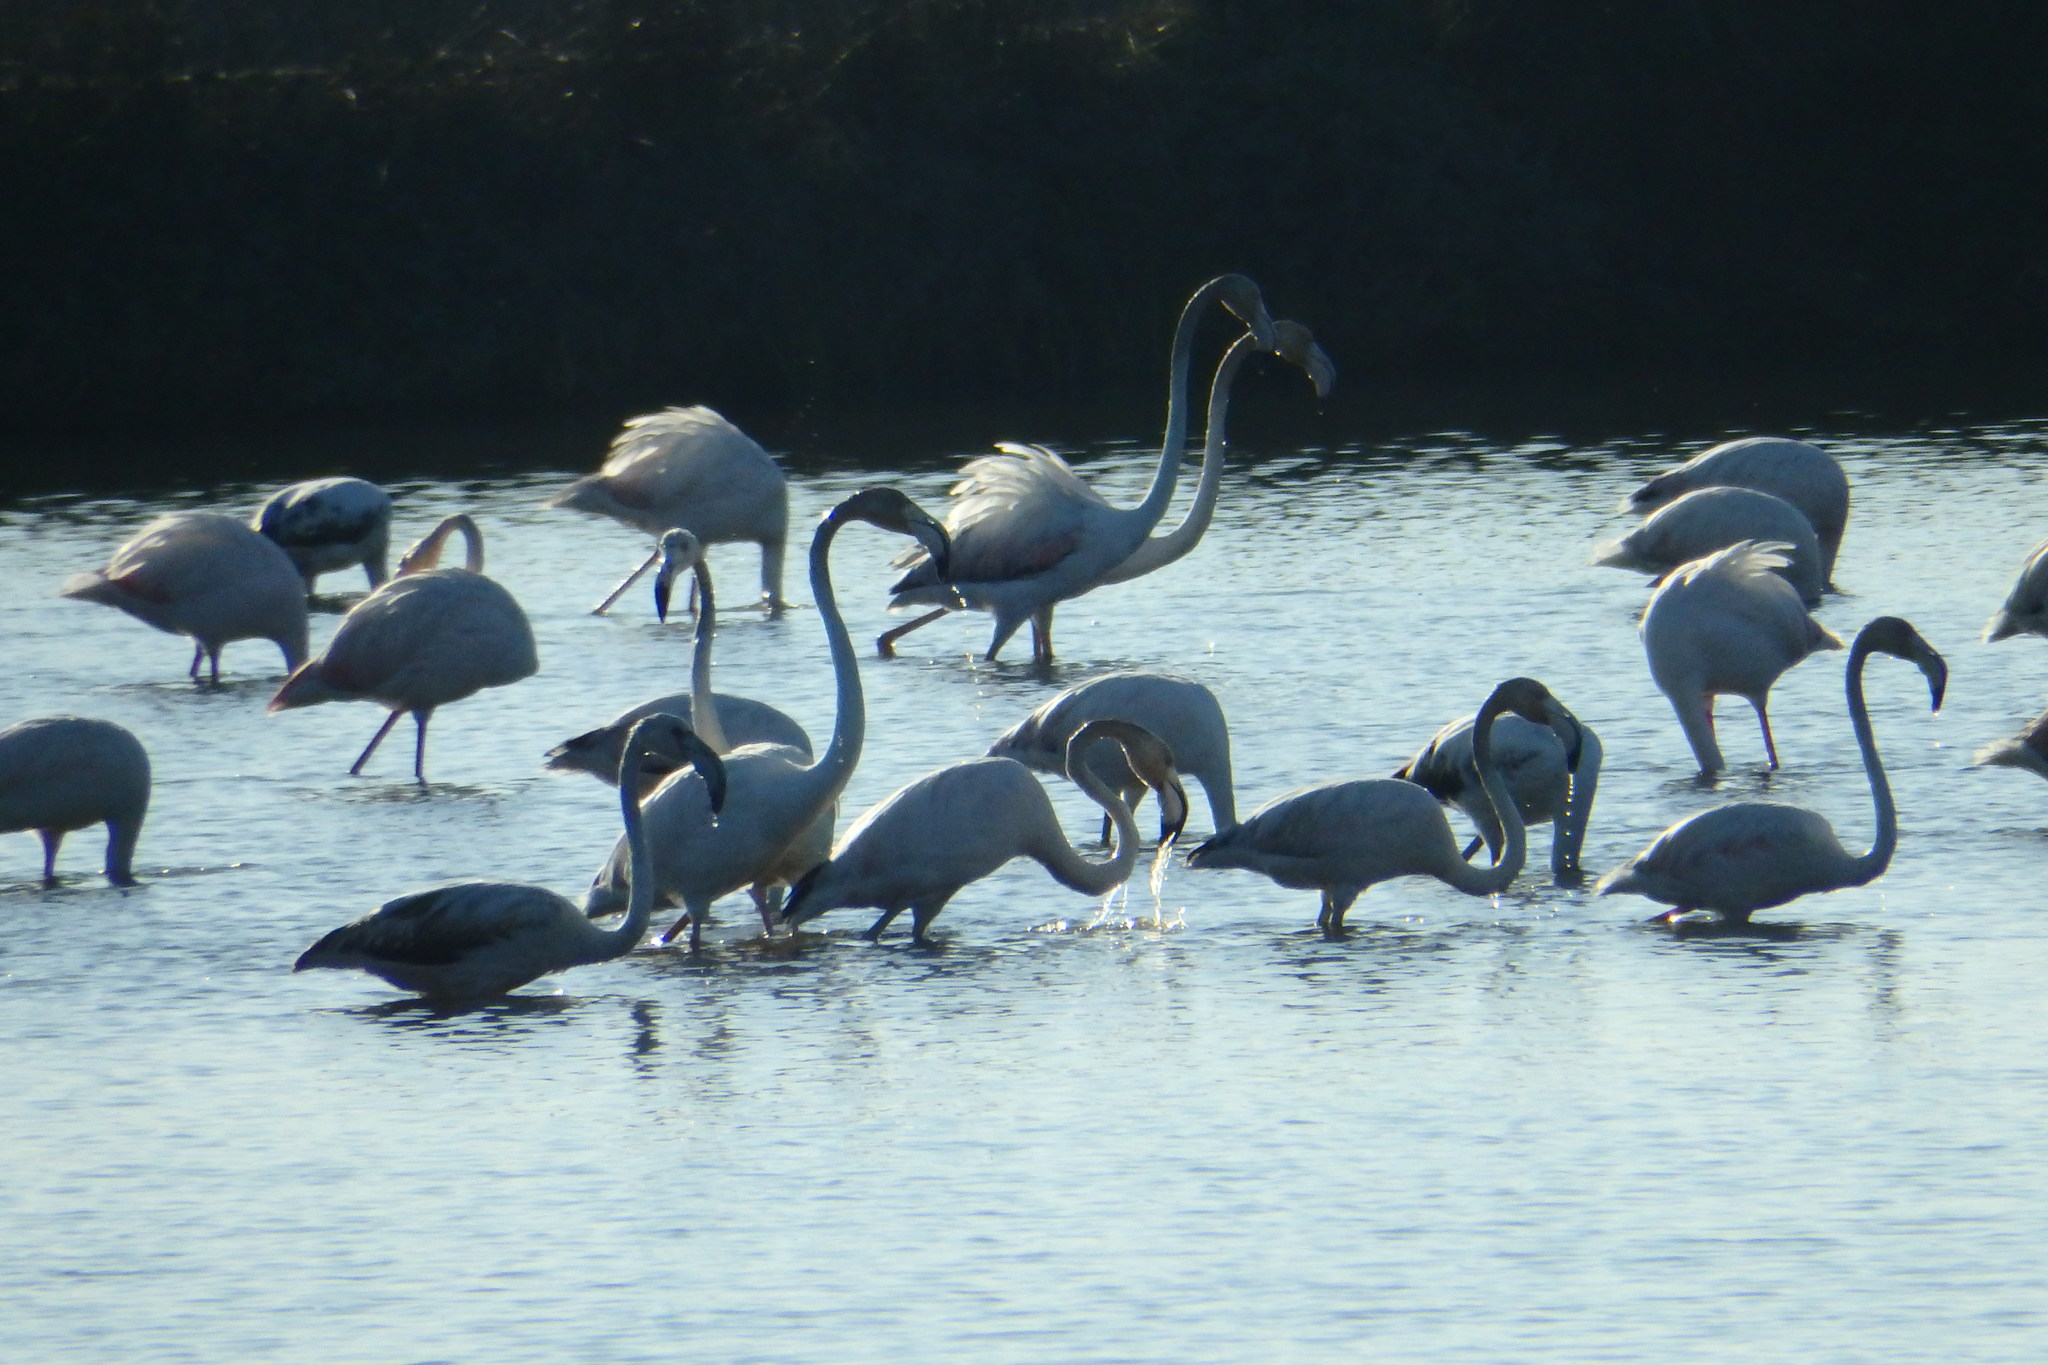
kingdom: Animalia
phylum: Chordata
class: Aves
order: Phoenicopteriformes
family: Phoenicopteridae
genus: Phoenicopterus
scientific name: Phoenicopterus roseus
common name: Greater flamingo
